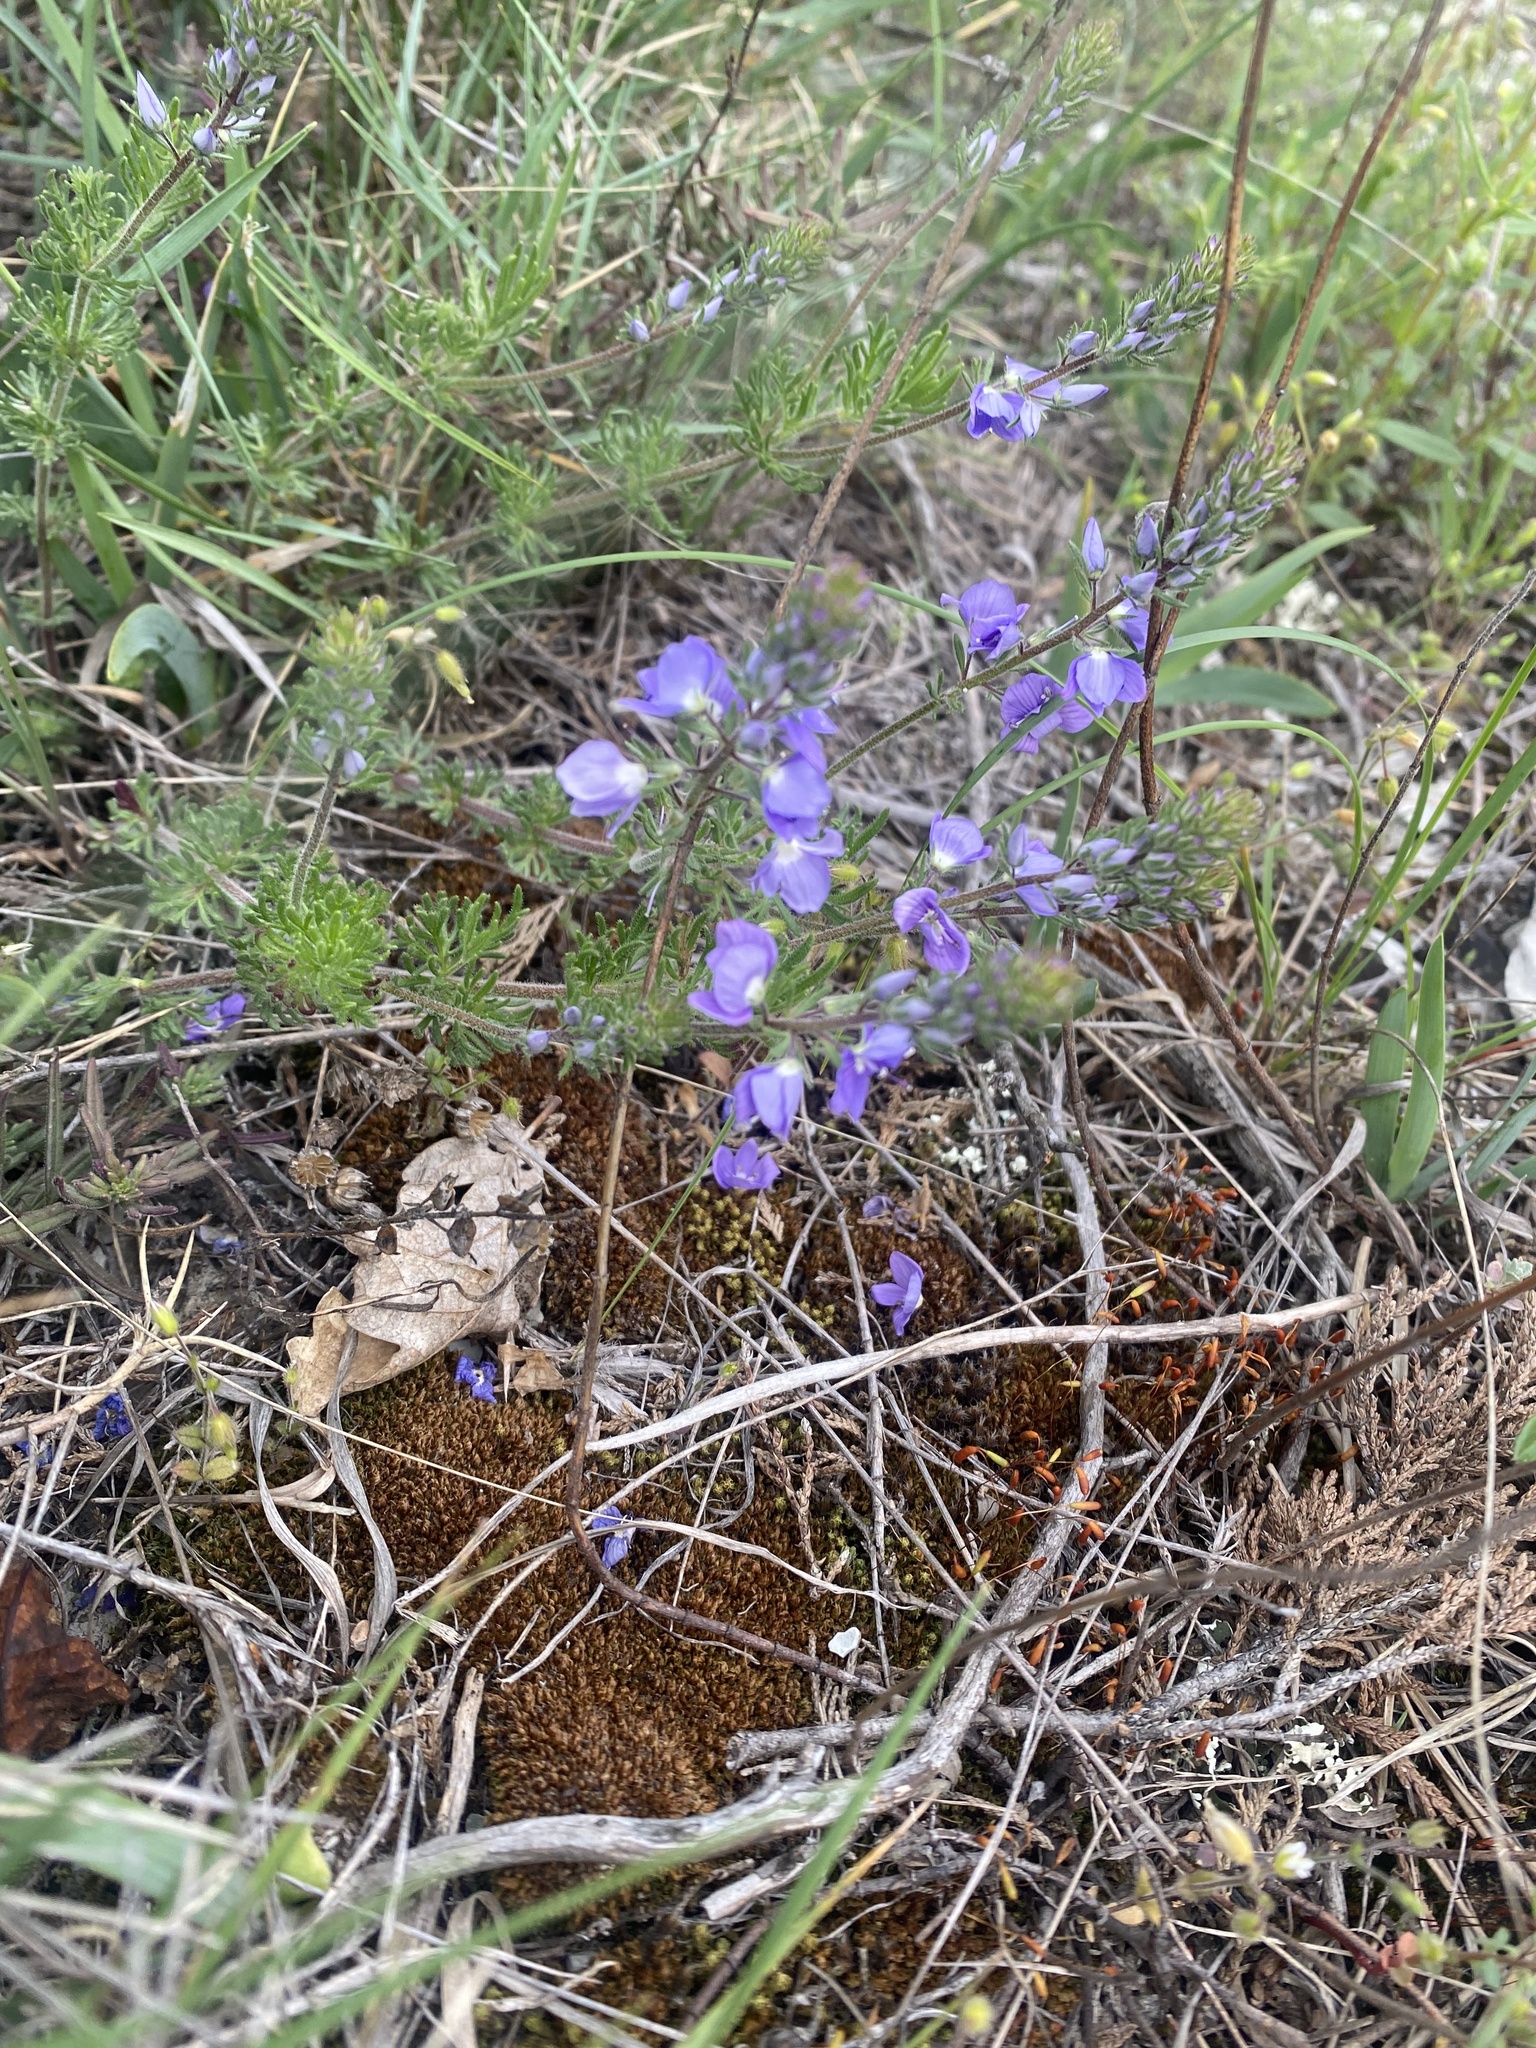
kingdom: Plantae
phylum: Tracheophyta
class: Magnoliopsida
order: Lamiales
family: Plantaginaceae
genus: Veronica
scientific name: Veronica capsellicarpa
